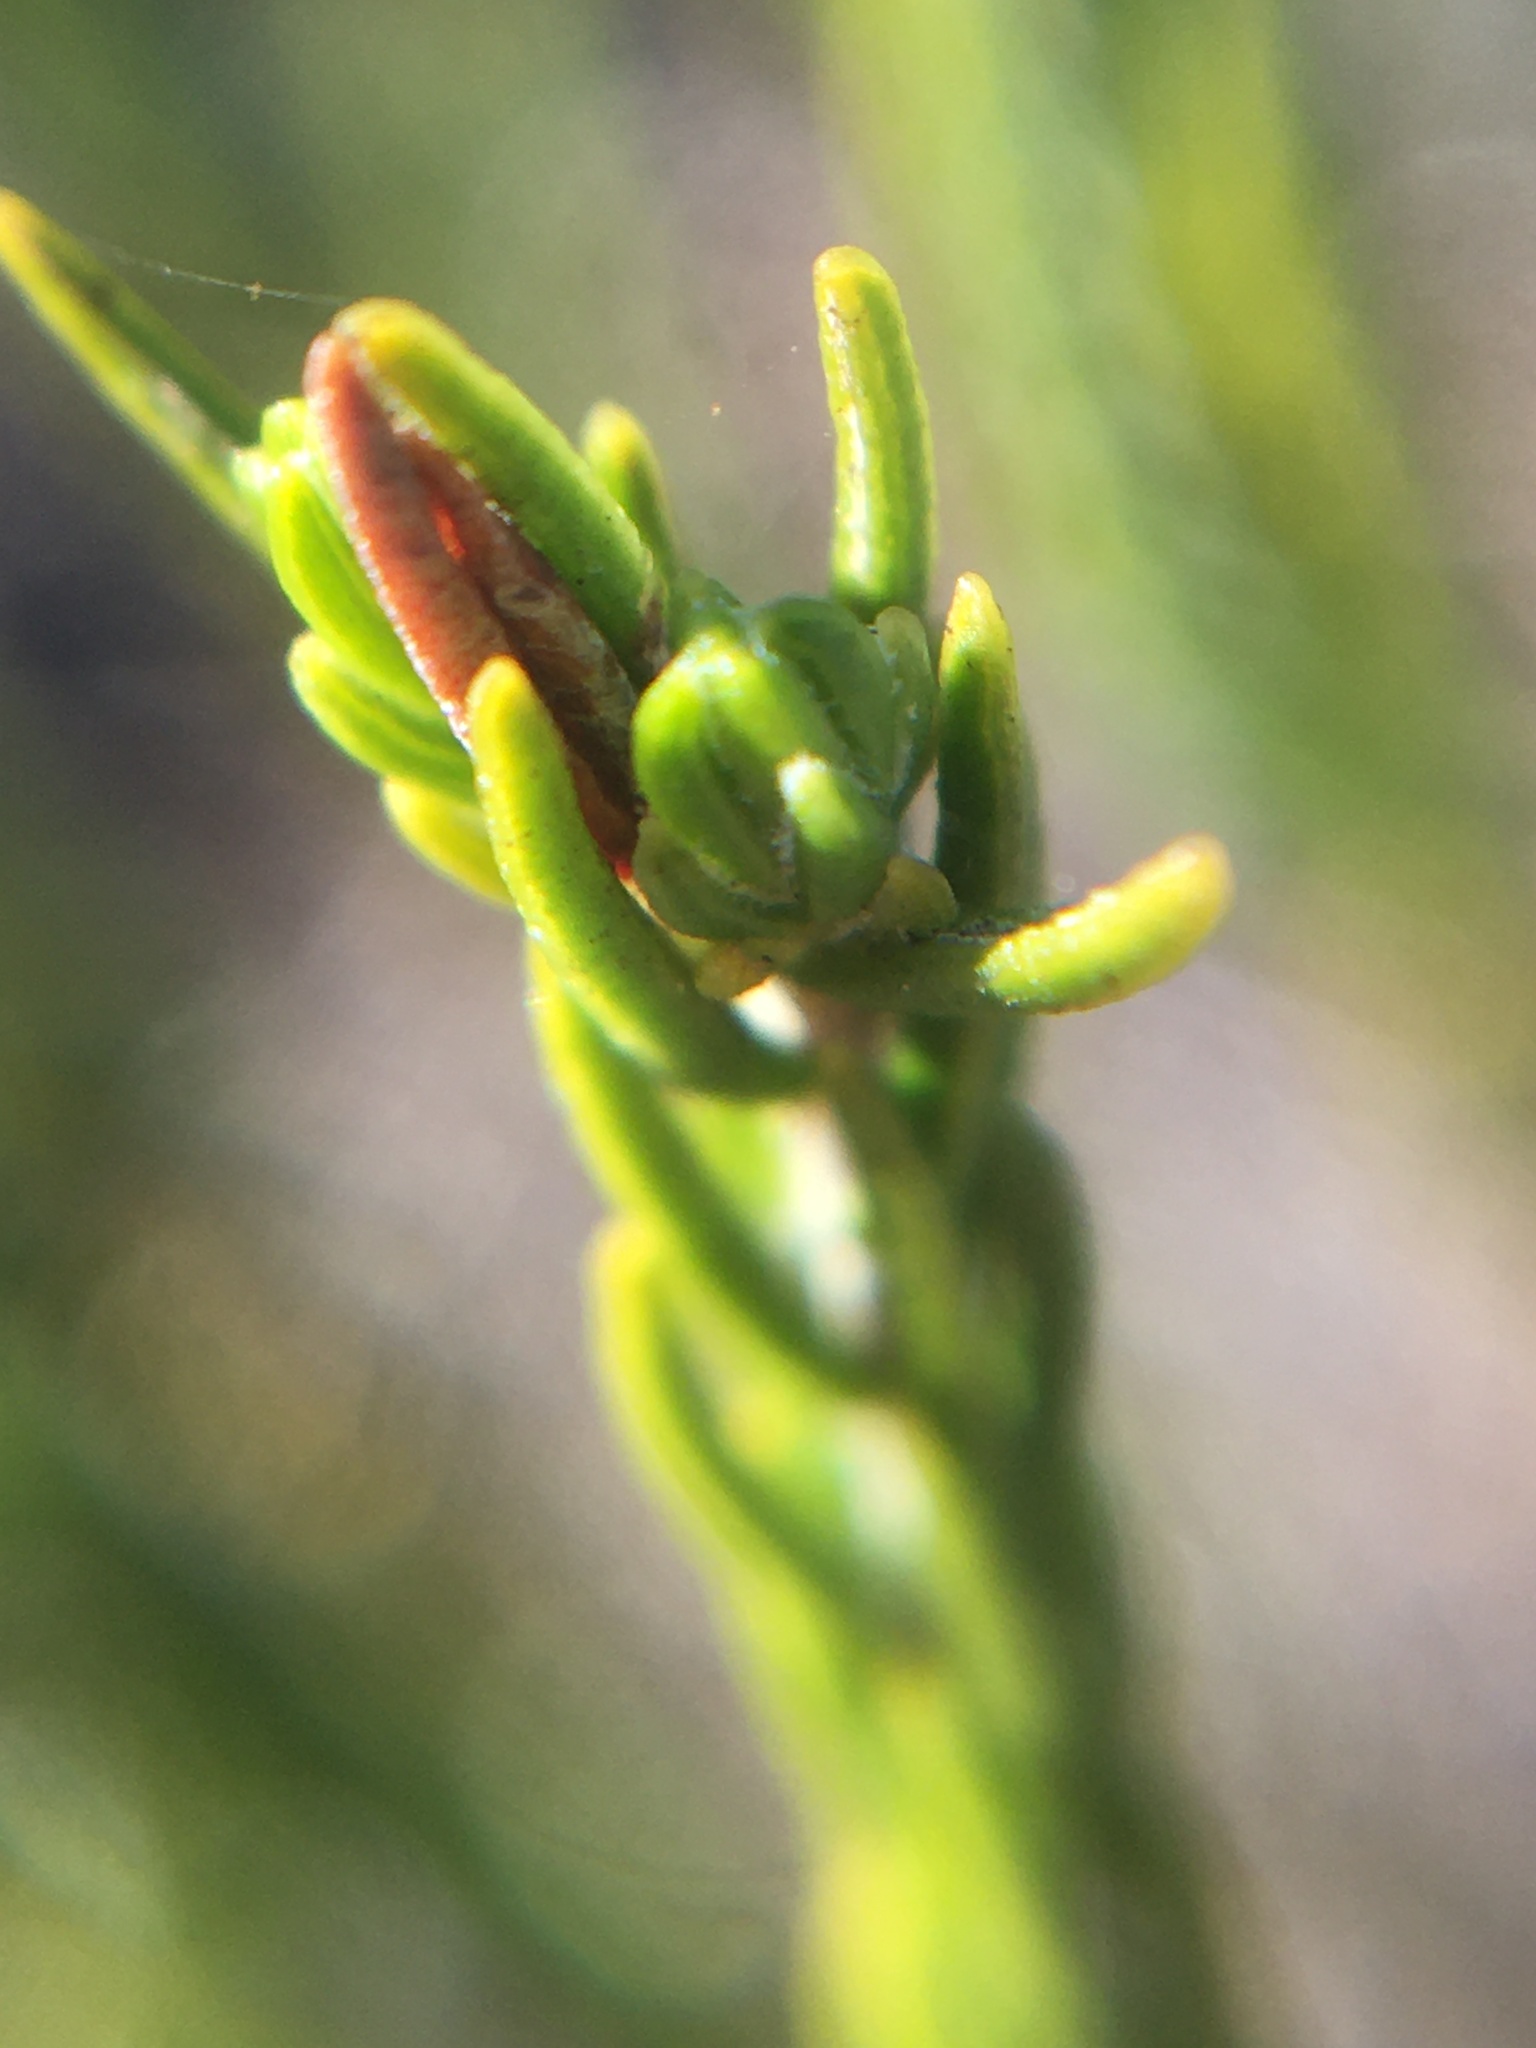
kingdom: Plantae
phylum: Tracheophyta
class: Magnoliopsida
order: Malvales
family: Thymelaeaceae
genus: Struthiola
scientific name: Struthiola ciliata
